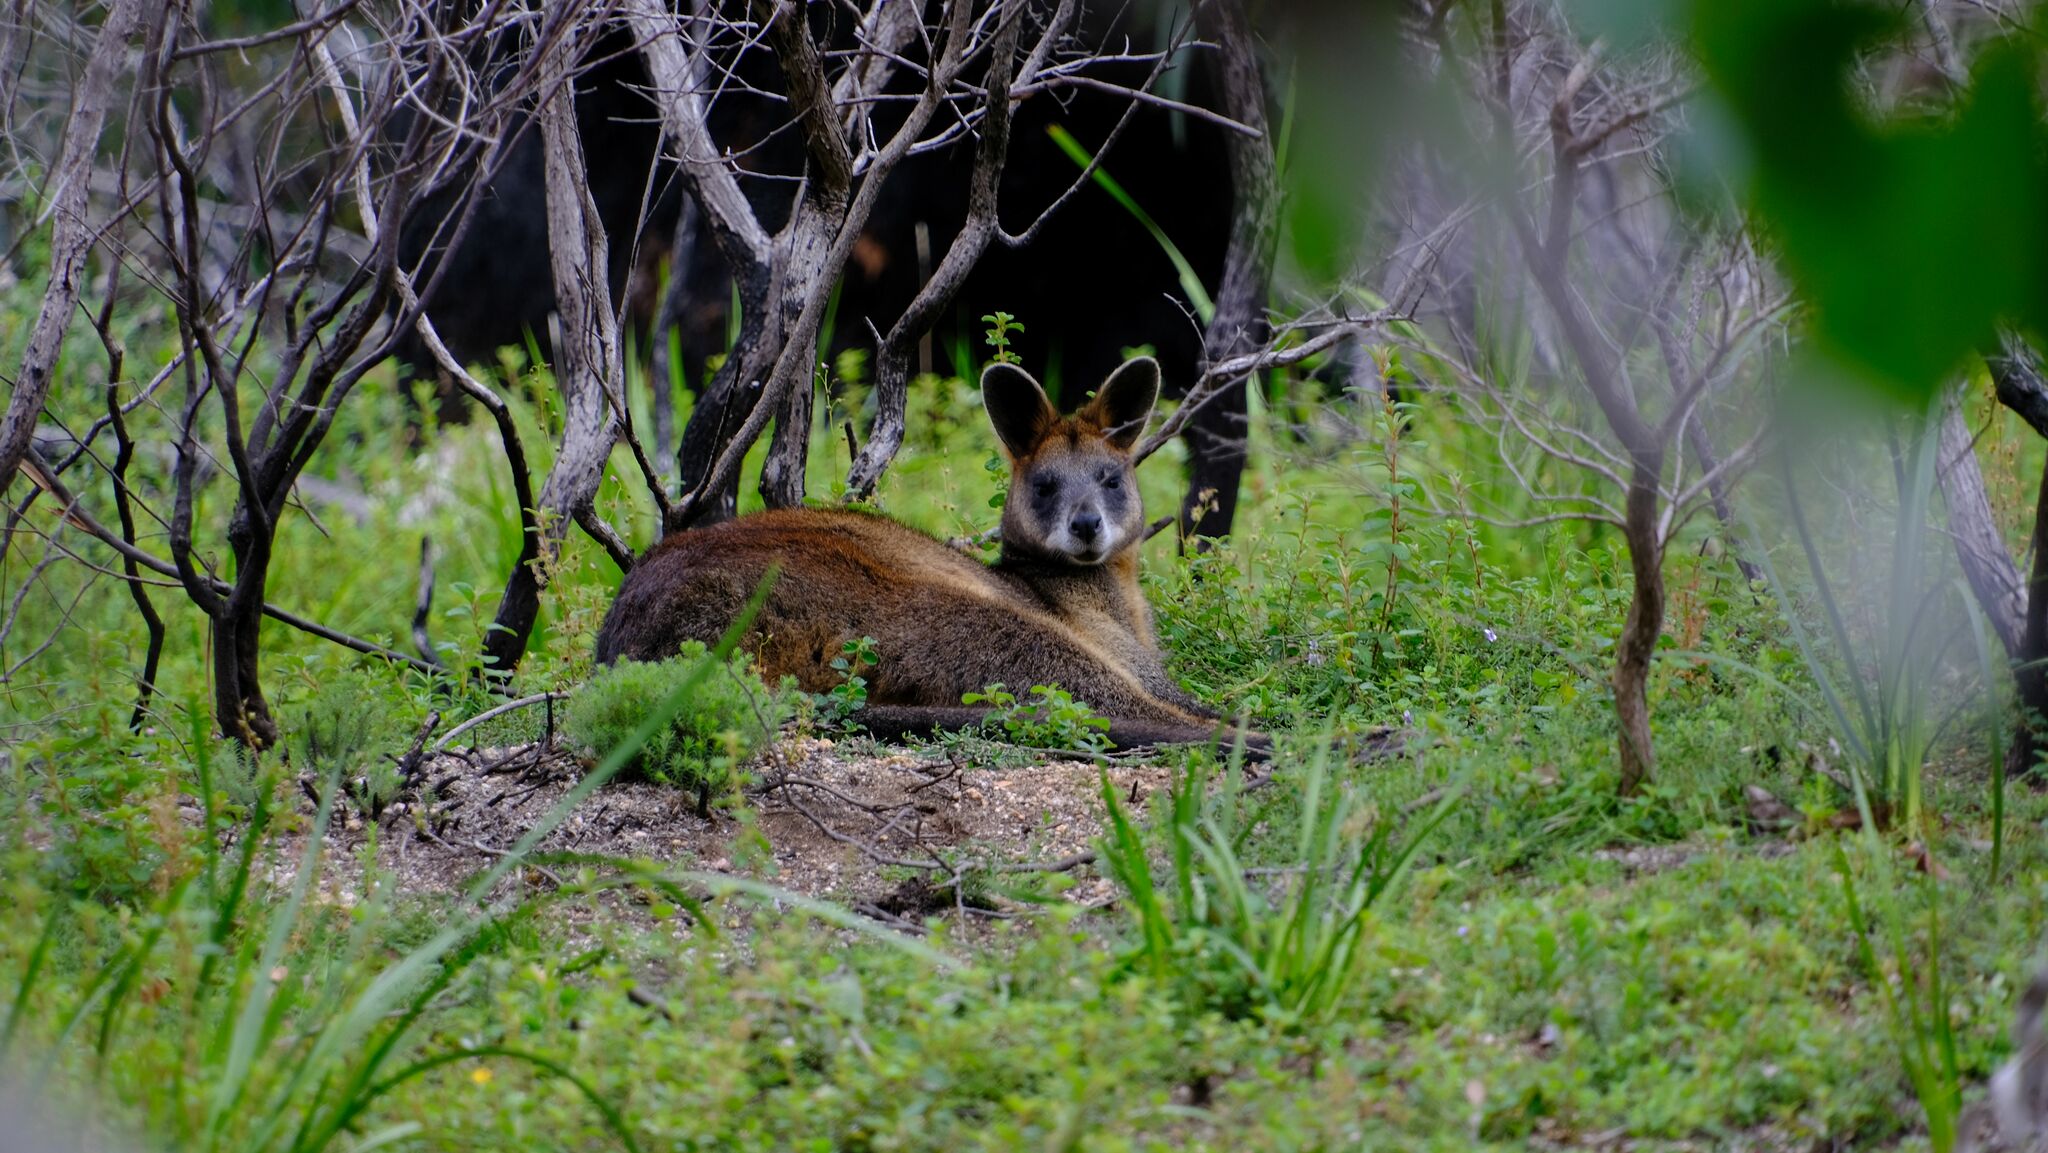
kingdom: Animalia
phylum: Chordata
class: Mammalia
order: Diprotodontia
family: Macropodidae
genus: Wallabia
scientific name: Wallabia bicolor
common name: Swamp wallaby
